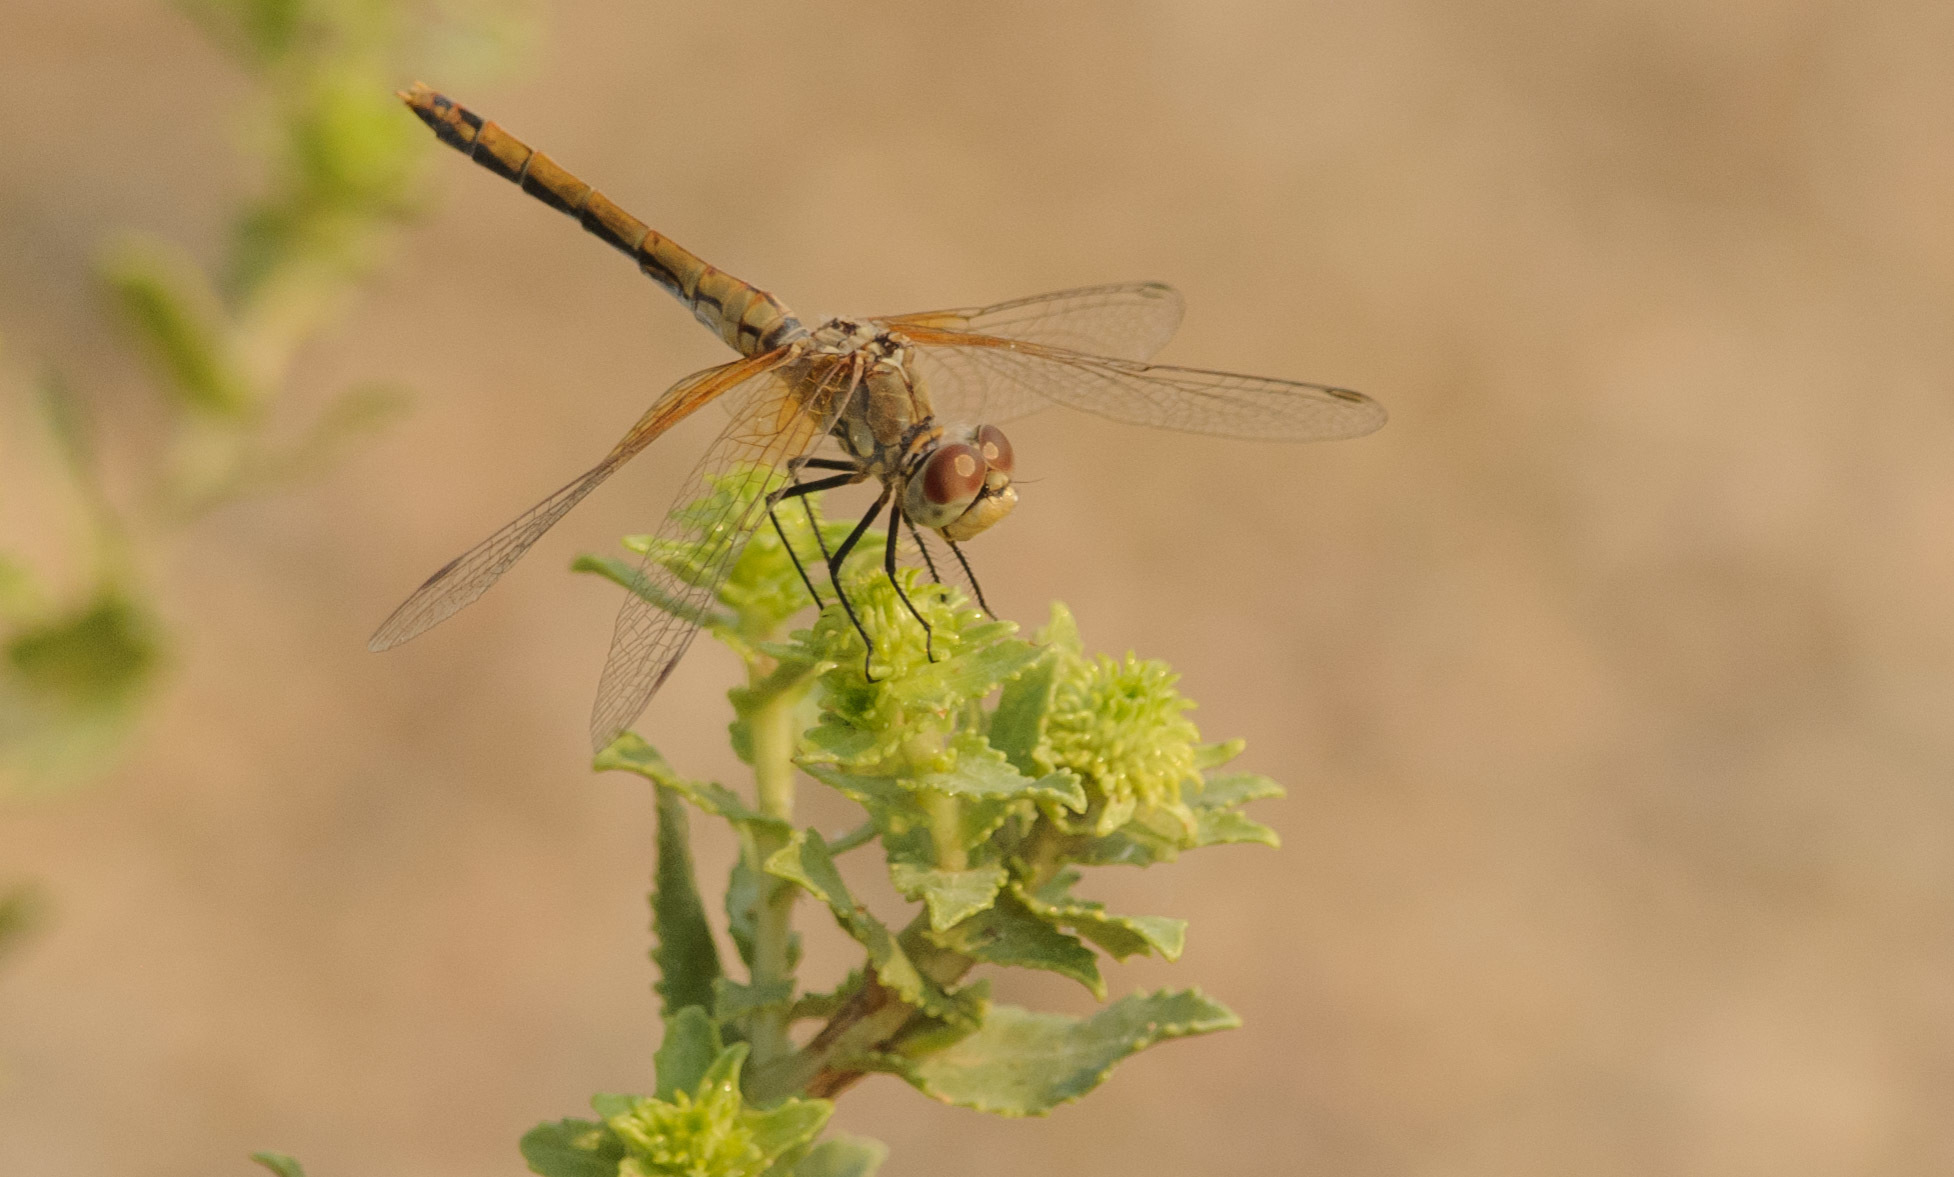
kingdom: Animalia
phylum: Arthropoda
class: Insecta
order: Odonata
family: Libellulidae
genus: Sympetrum
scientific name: Sympetrum semicinctum
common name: Band-winged meadowhawk
